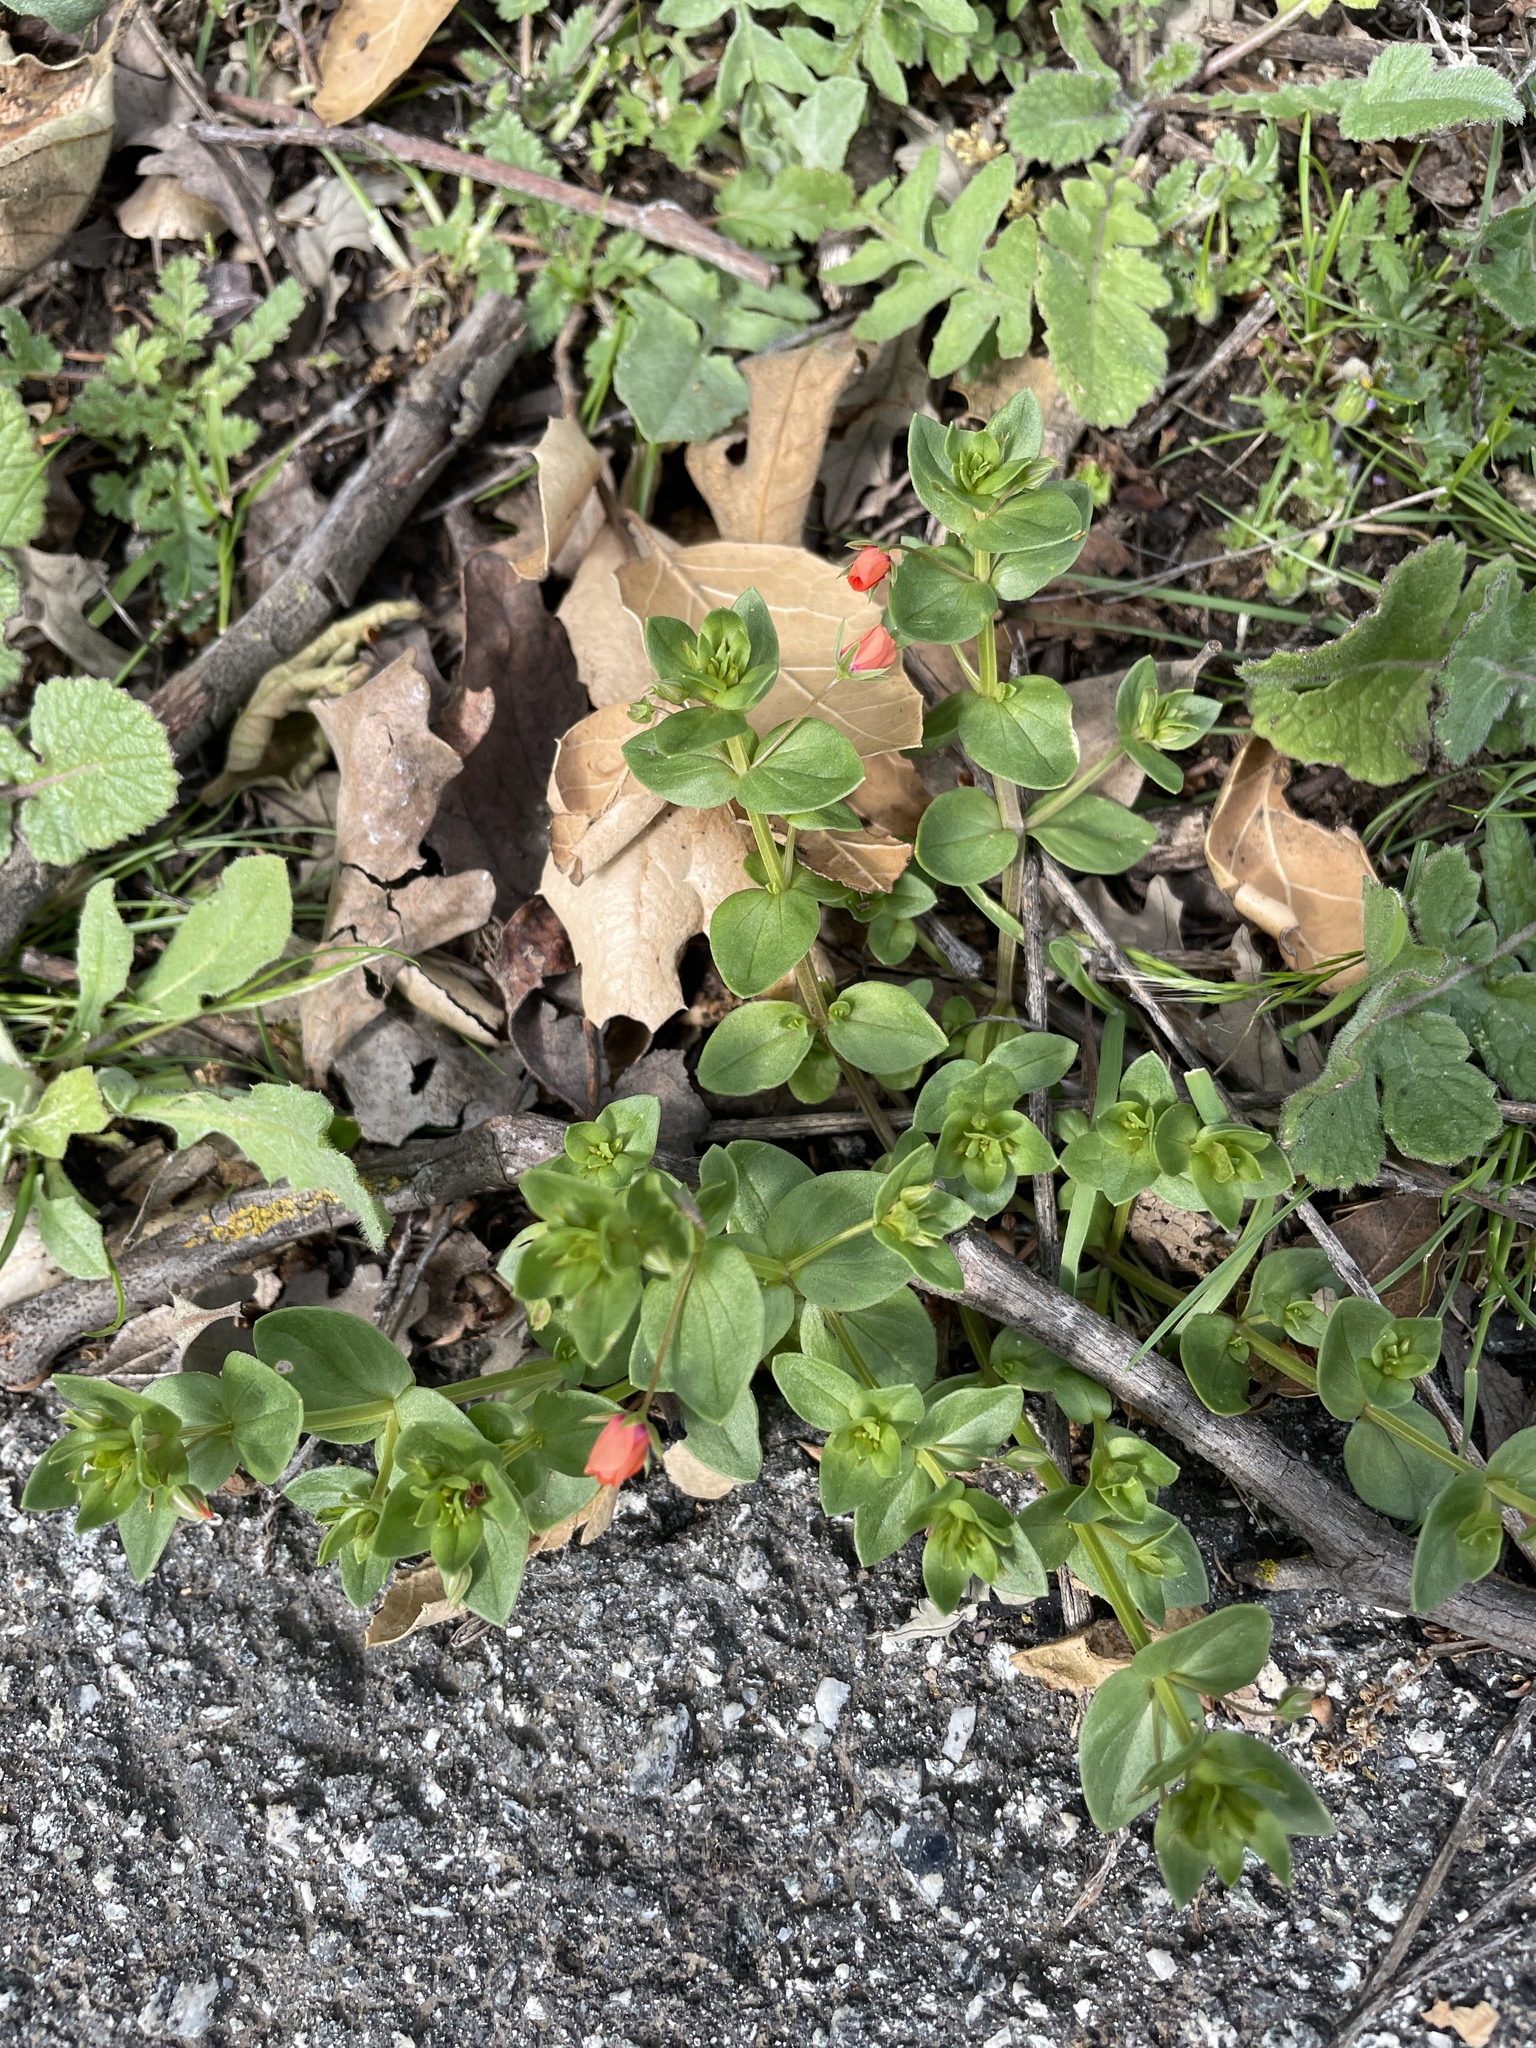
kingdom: Plantae
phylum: Tracheophyta
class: Magnoliopsida
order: Ericales
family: Primulaceae
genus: Lysimachia
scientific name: Lysimachia arvensis
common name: Scarlet pimpernel
